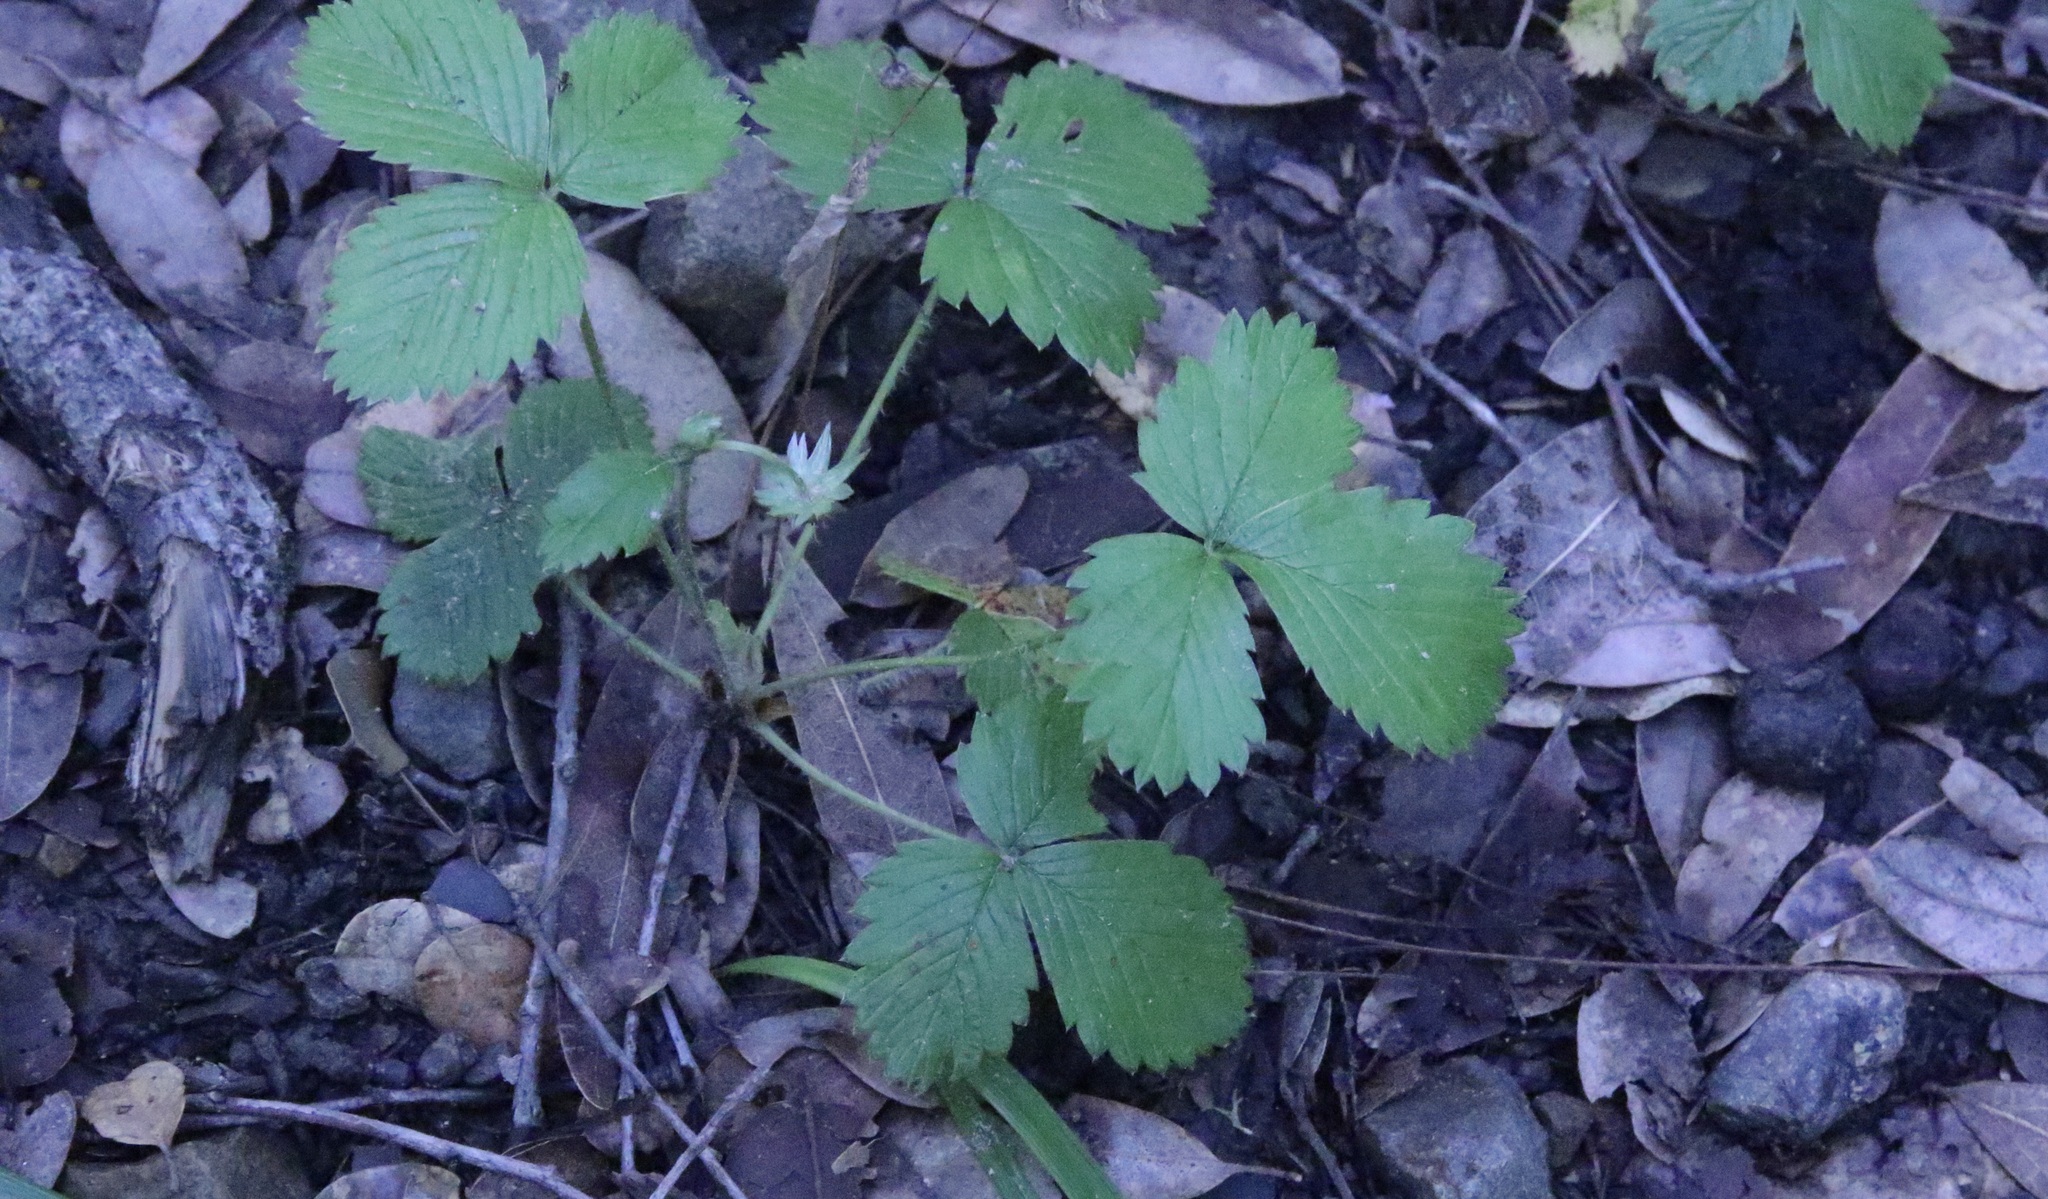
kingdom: Plantae
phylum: Tracheophyta
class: Magnoliopsida
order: Rosales
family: Rosaceae
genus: Fragaria
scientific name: Fragaria vesca
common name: Wild strawberry
